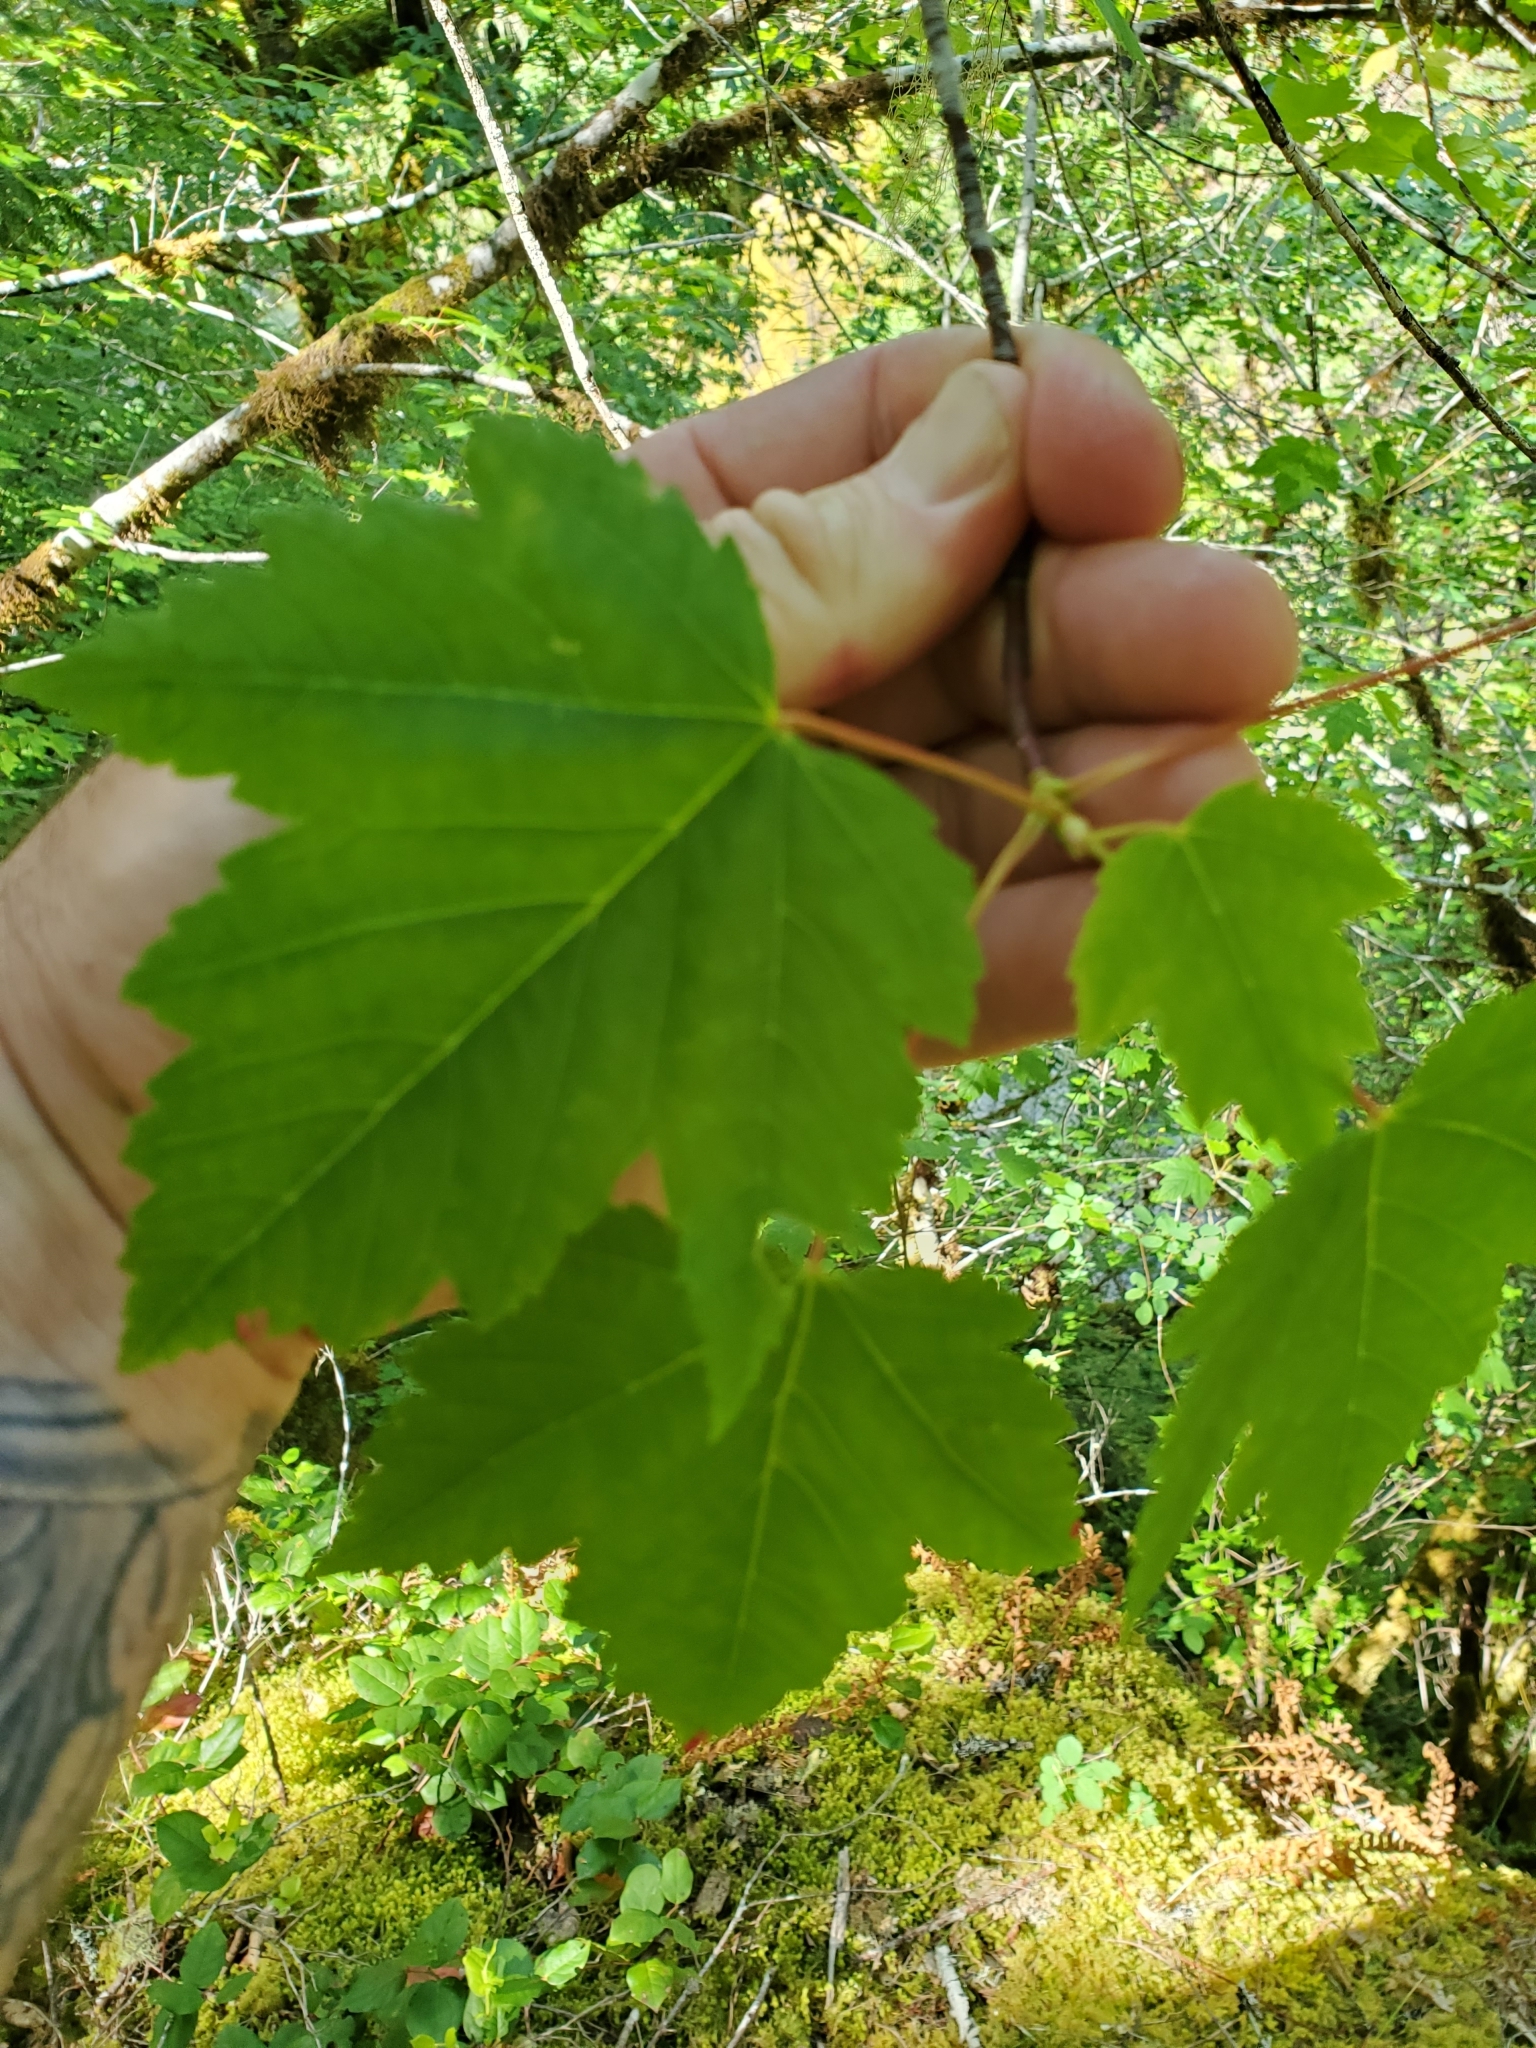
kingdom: Plantae
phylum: Tracheophyta
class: Magnoliopsida
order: Sapindales
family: Sapindaceae
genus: Acer
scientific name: Acer glabrum
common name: Rocky mountain maple
